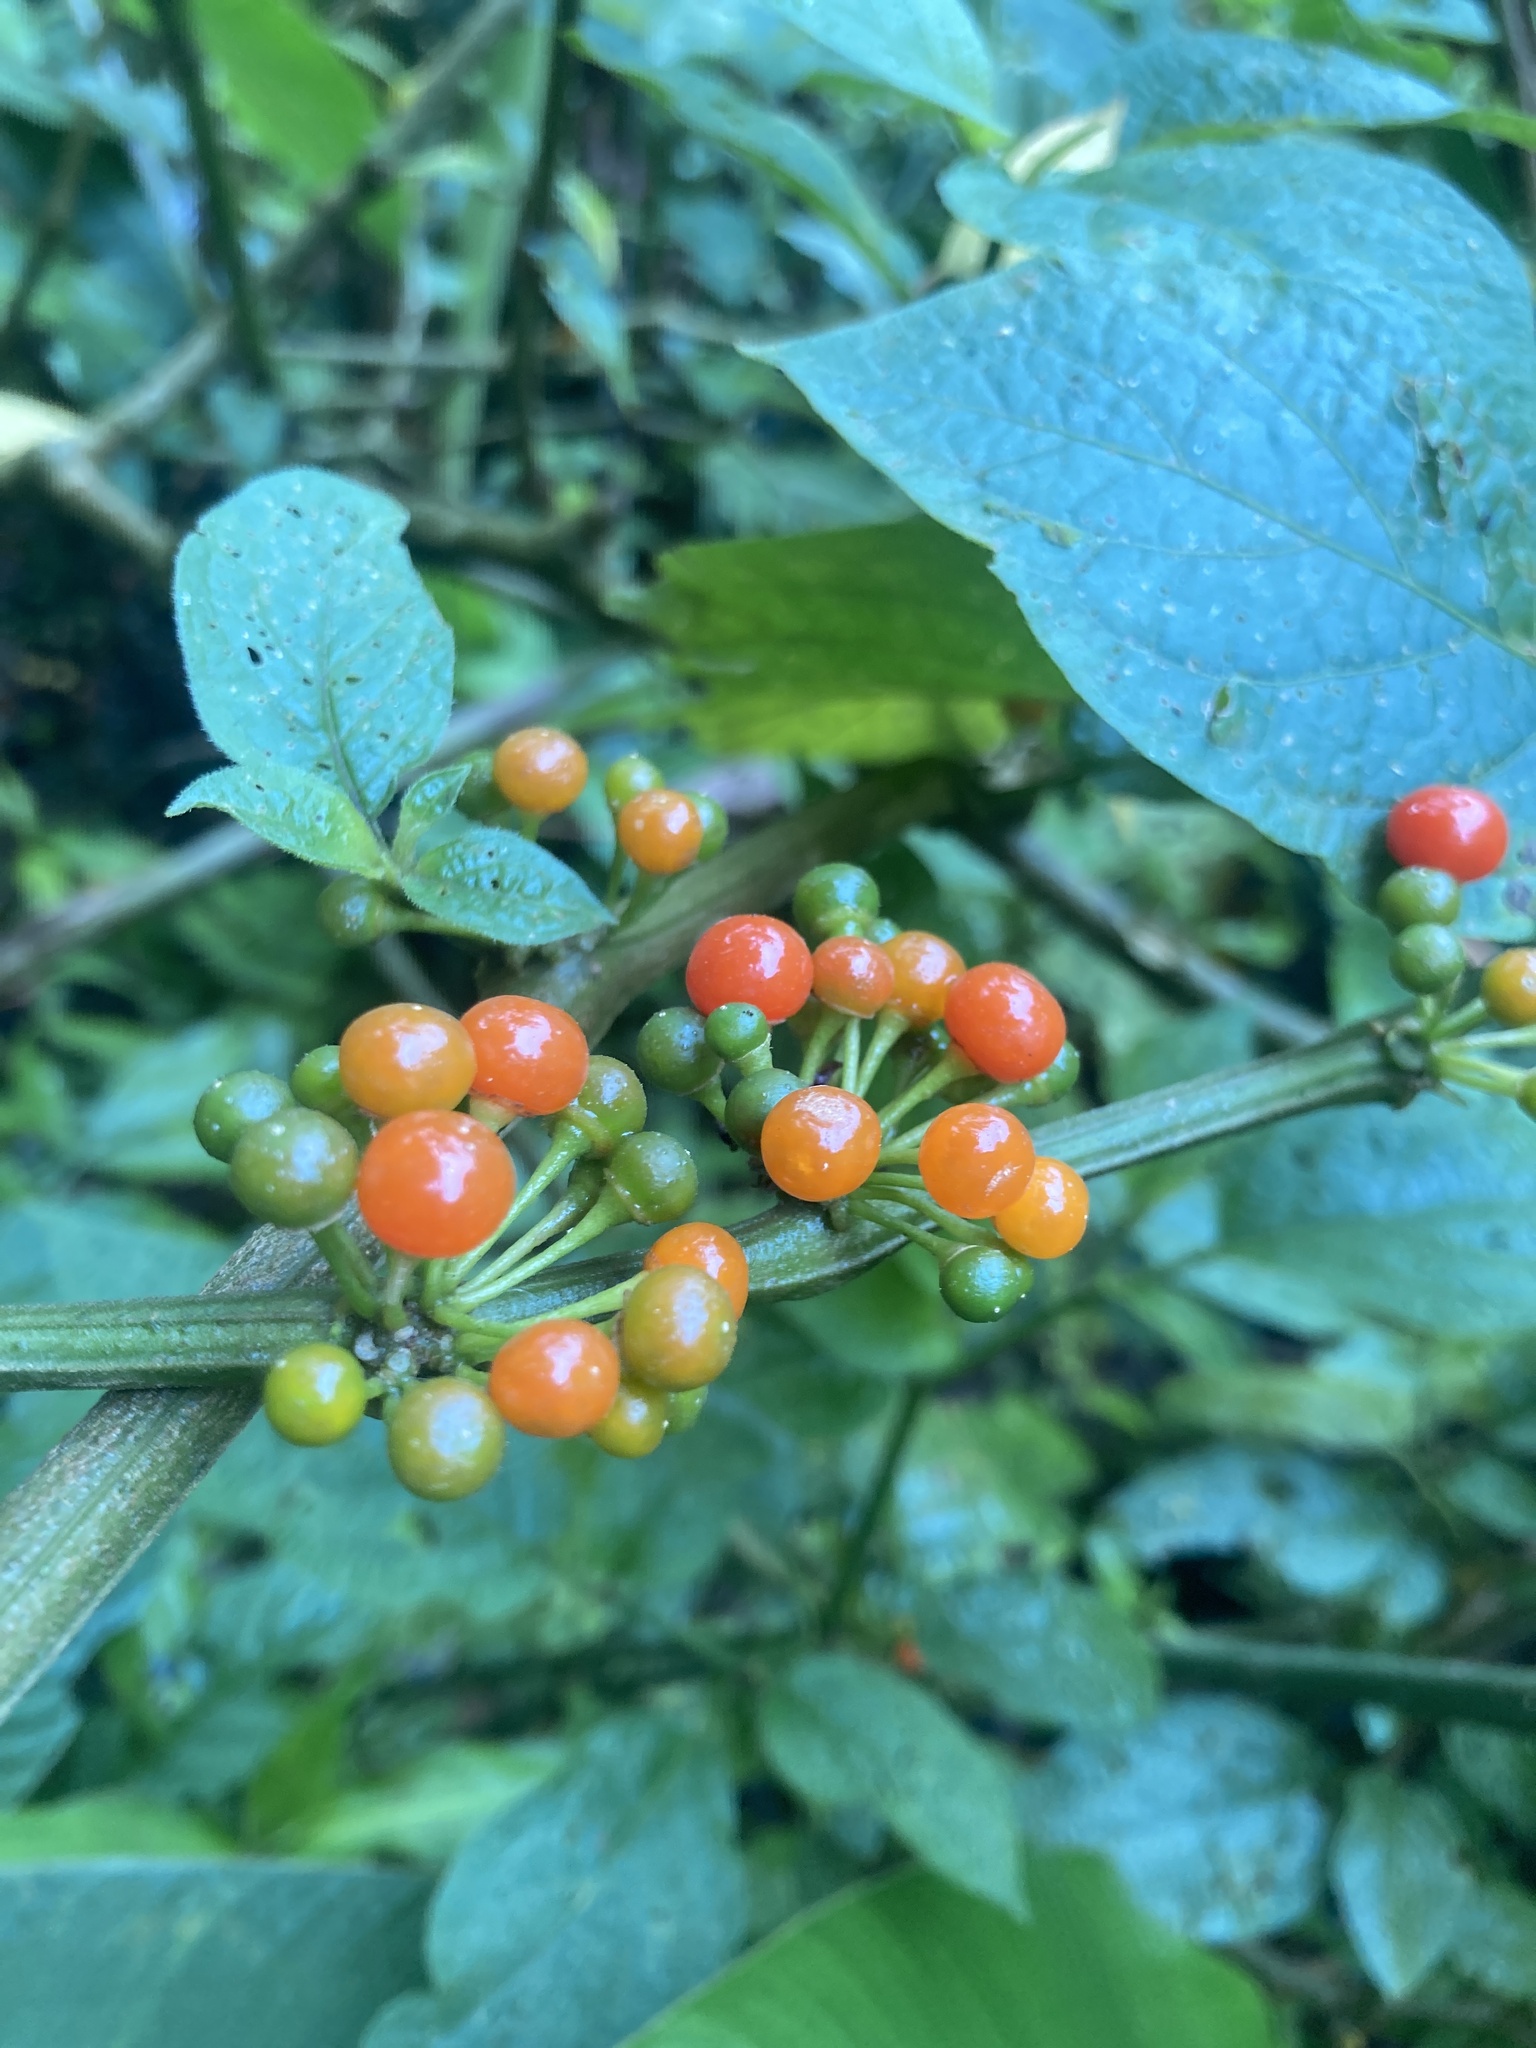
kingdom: Plantae
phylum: Tracheophyta
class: Magnoliopsida
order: Solanales
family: Solanaceae
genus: Witheringia
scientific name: Witheringia solanacea
